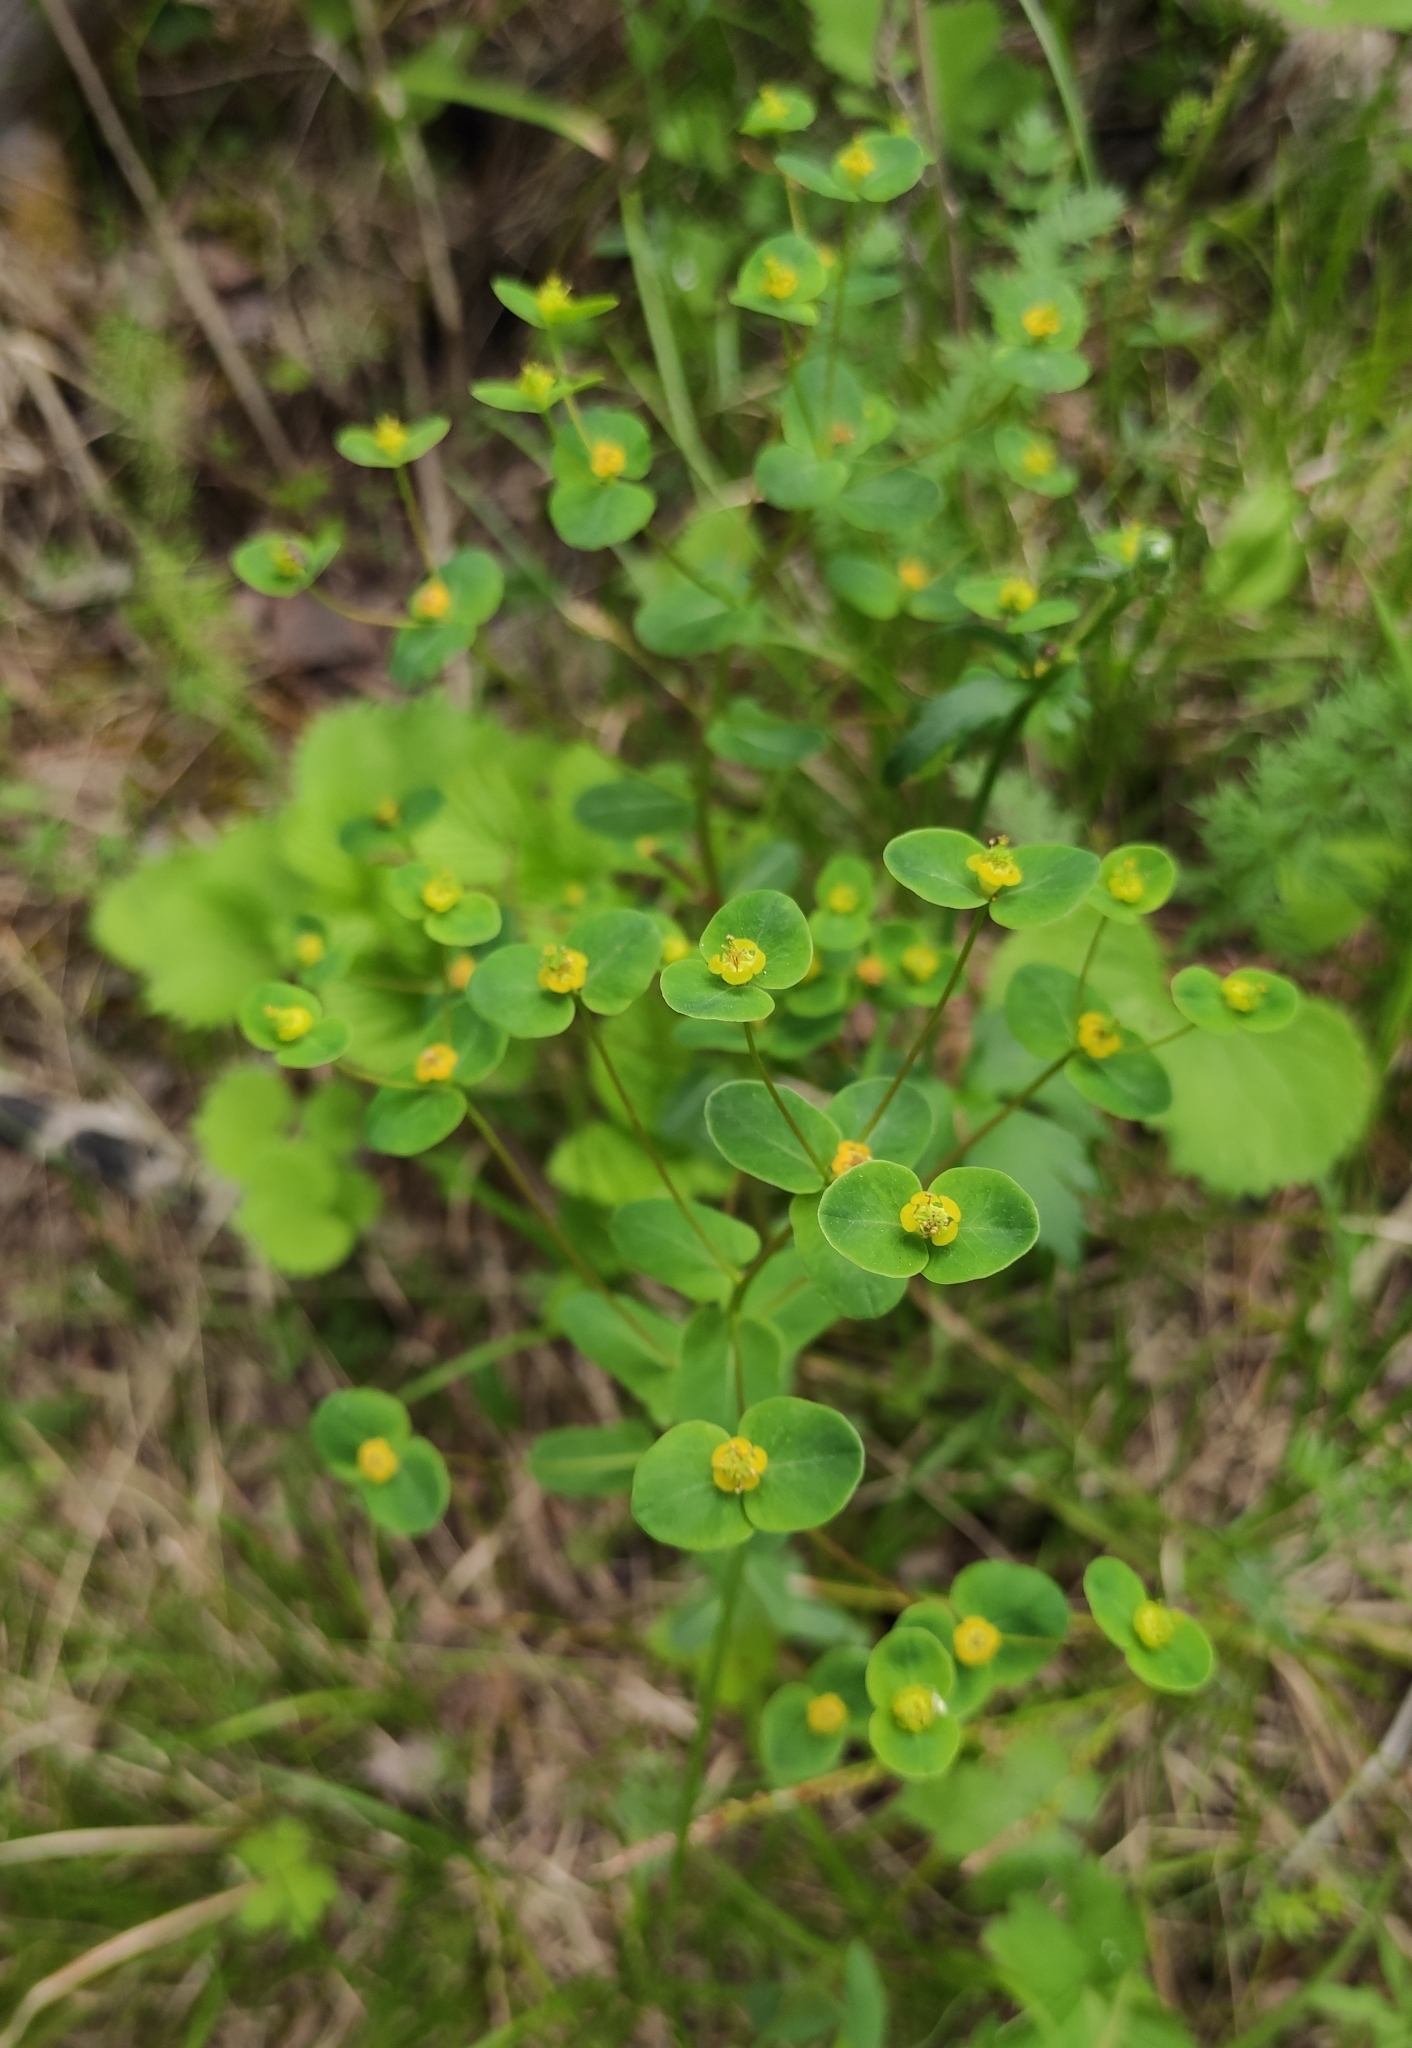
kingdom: Plantae
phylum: Tracheophyta
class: Magnoliopsida
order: Malpighiales
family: Euphorbiaceae
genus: Euphorbia
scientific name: Euphorbia jenisseiensis
